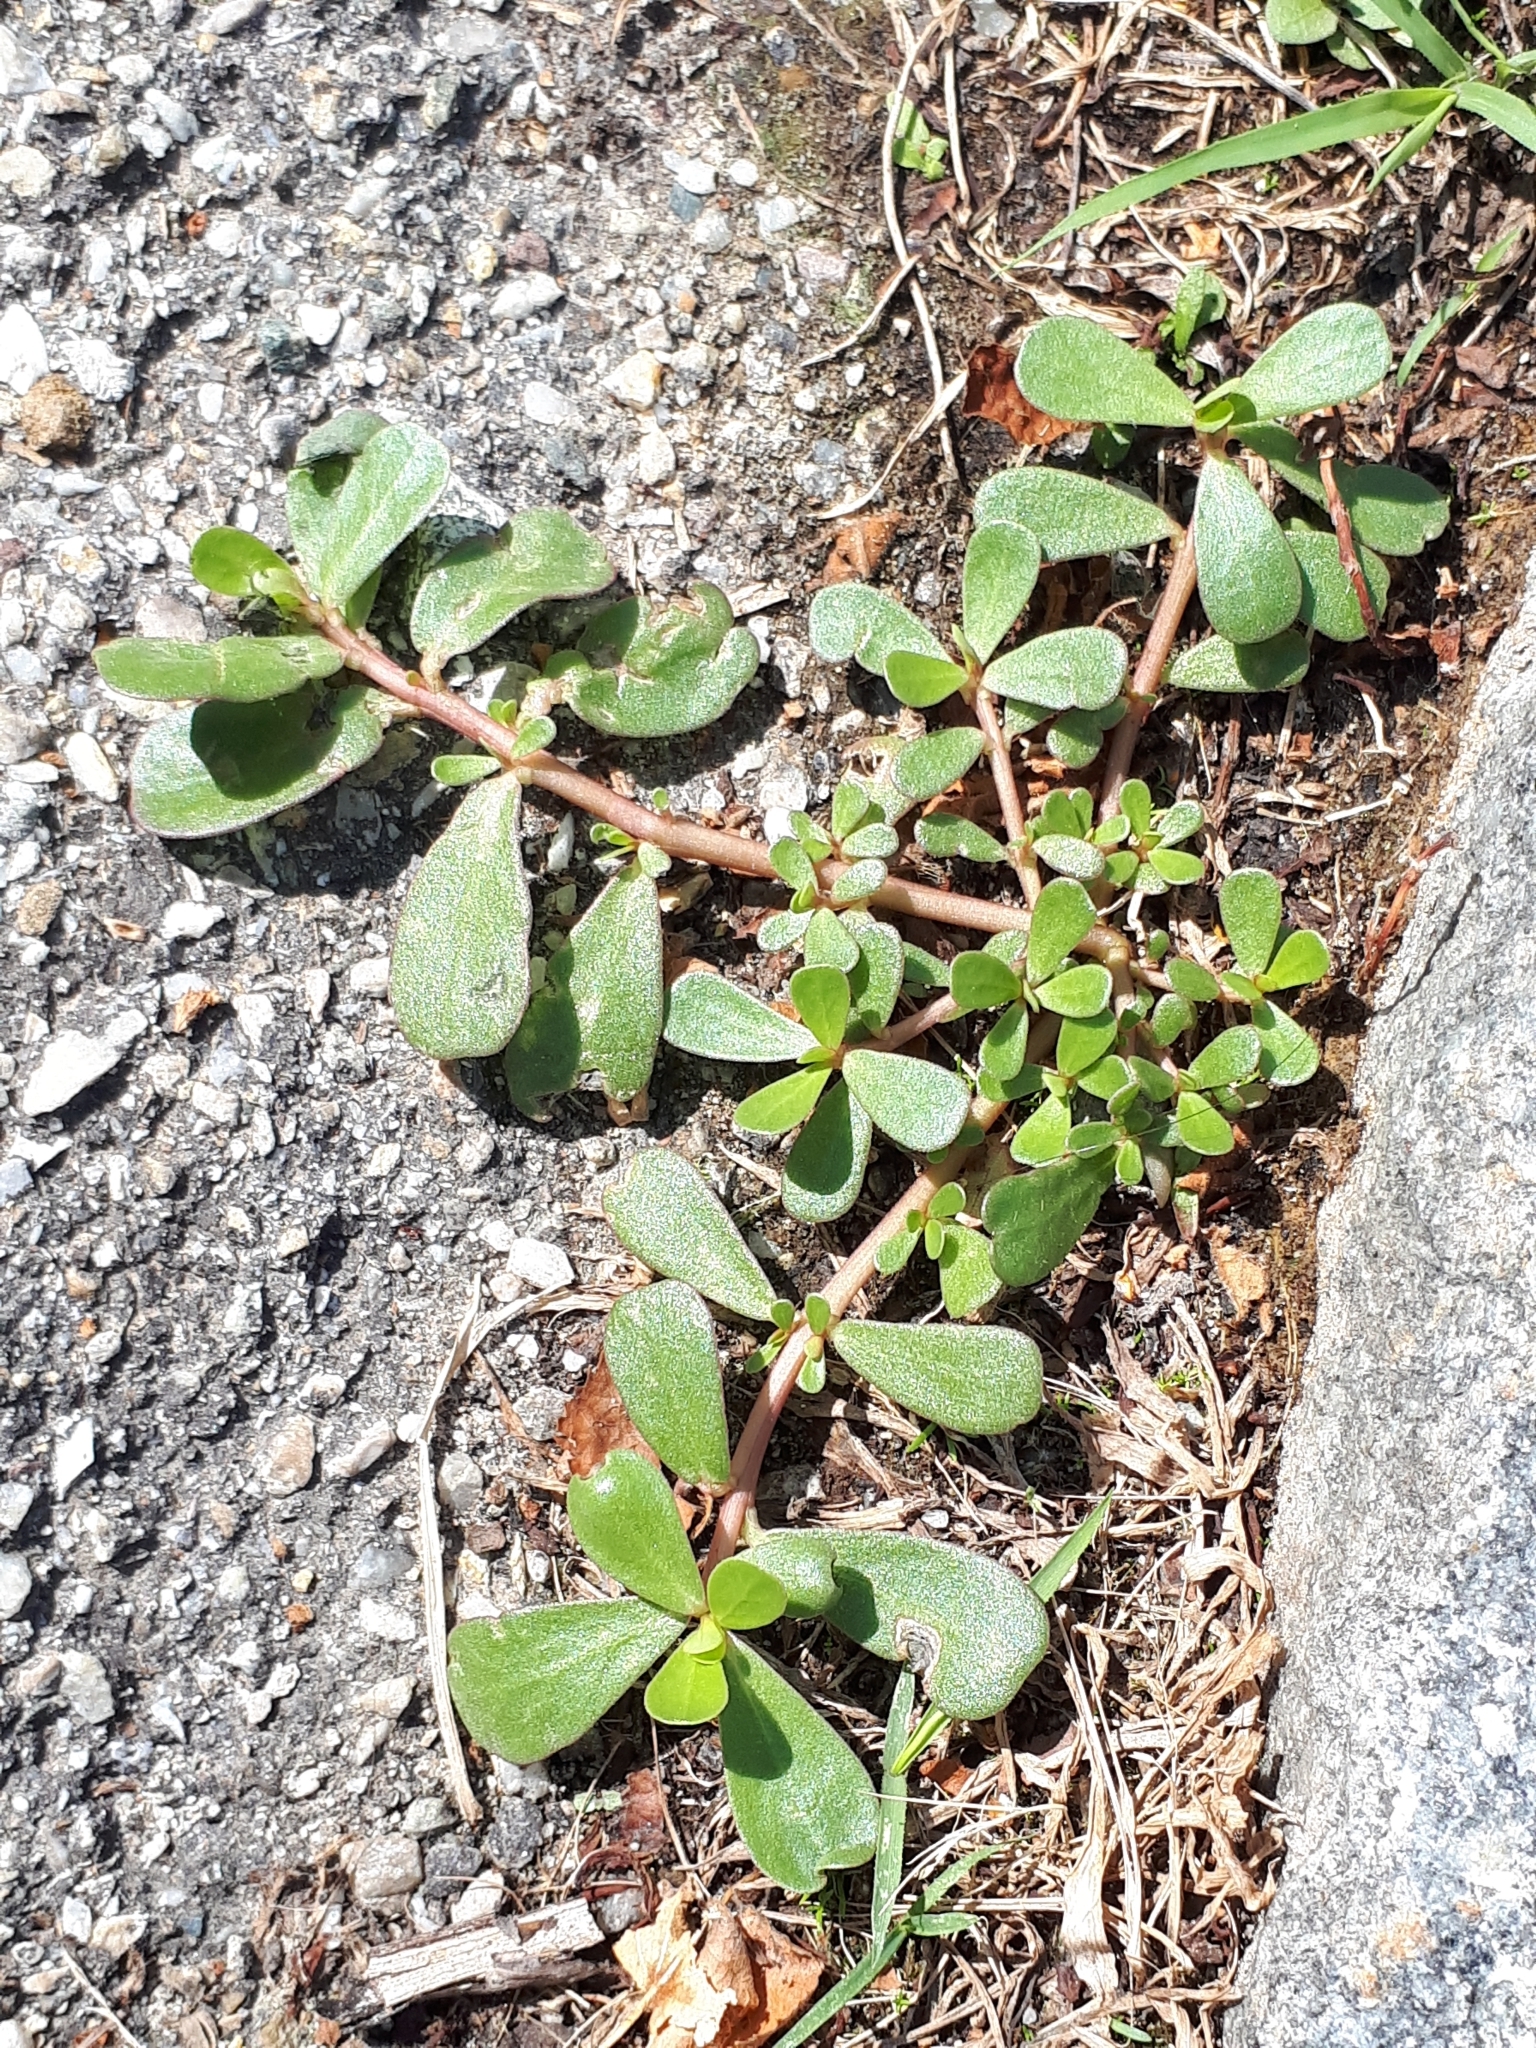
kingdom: Plantae
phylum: Tracheophyta
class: Magnoliopsida
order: Caryophyllales
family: Portulacaceae
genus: Portulaca
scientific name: Portulaca oleracea
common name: Common purslane
